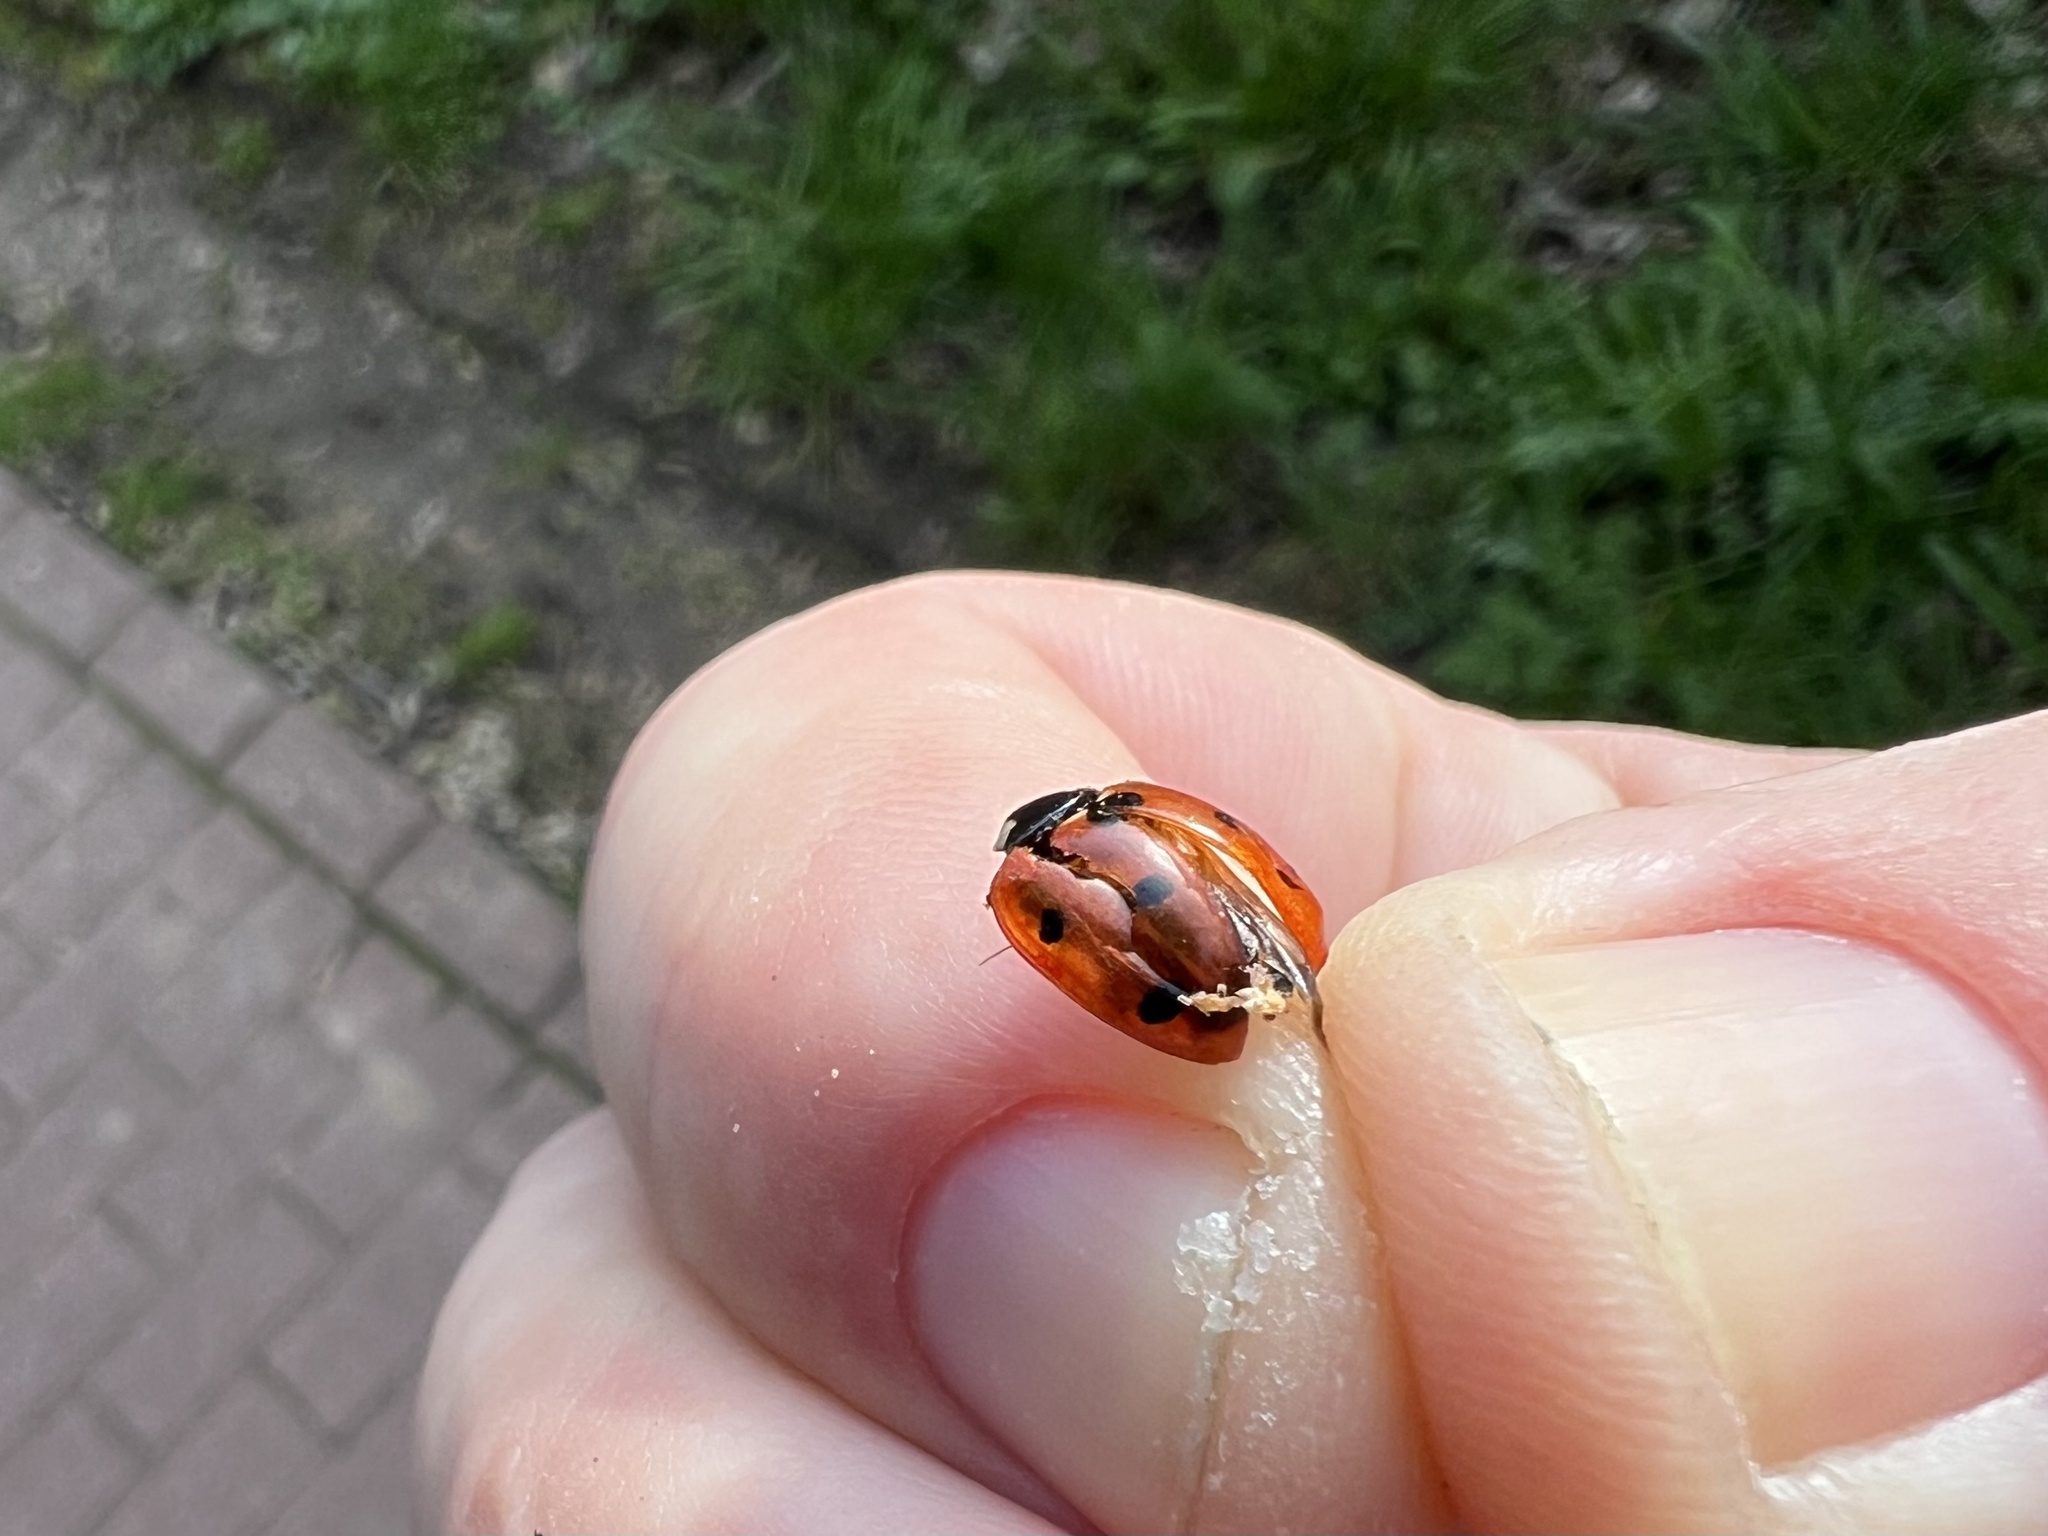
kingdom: Animalia
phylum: Arthropoda
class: Insecta
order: Coleoptera
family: Coccinellidae
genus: Coccinella
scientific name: Coccinella septempunctata
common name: Sevenspotted lady beetle
